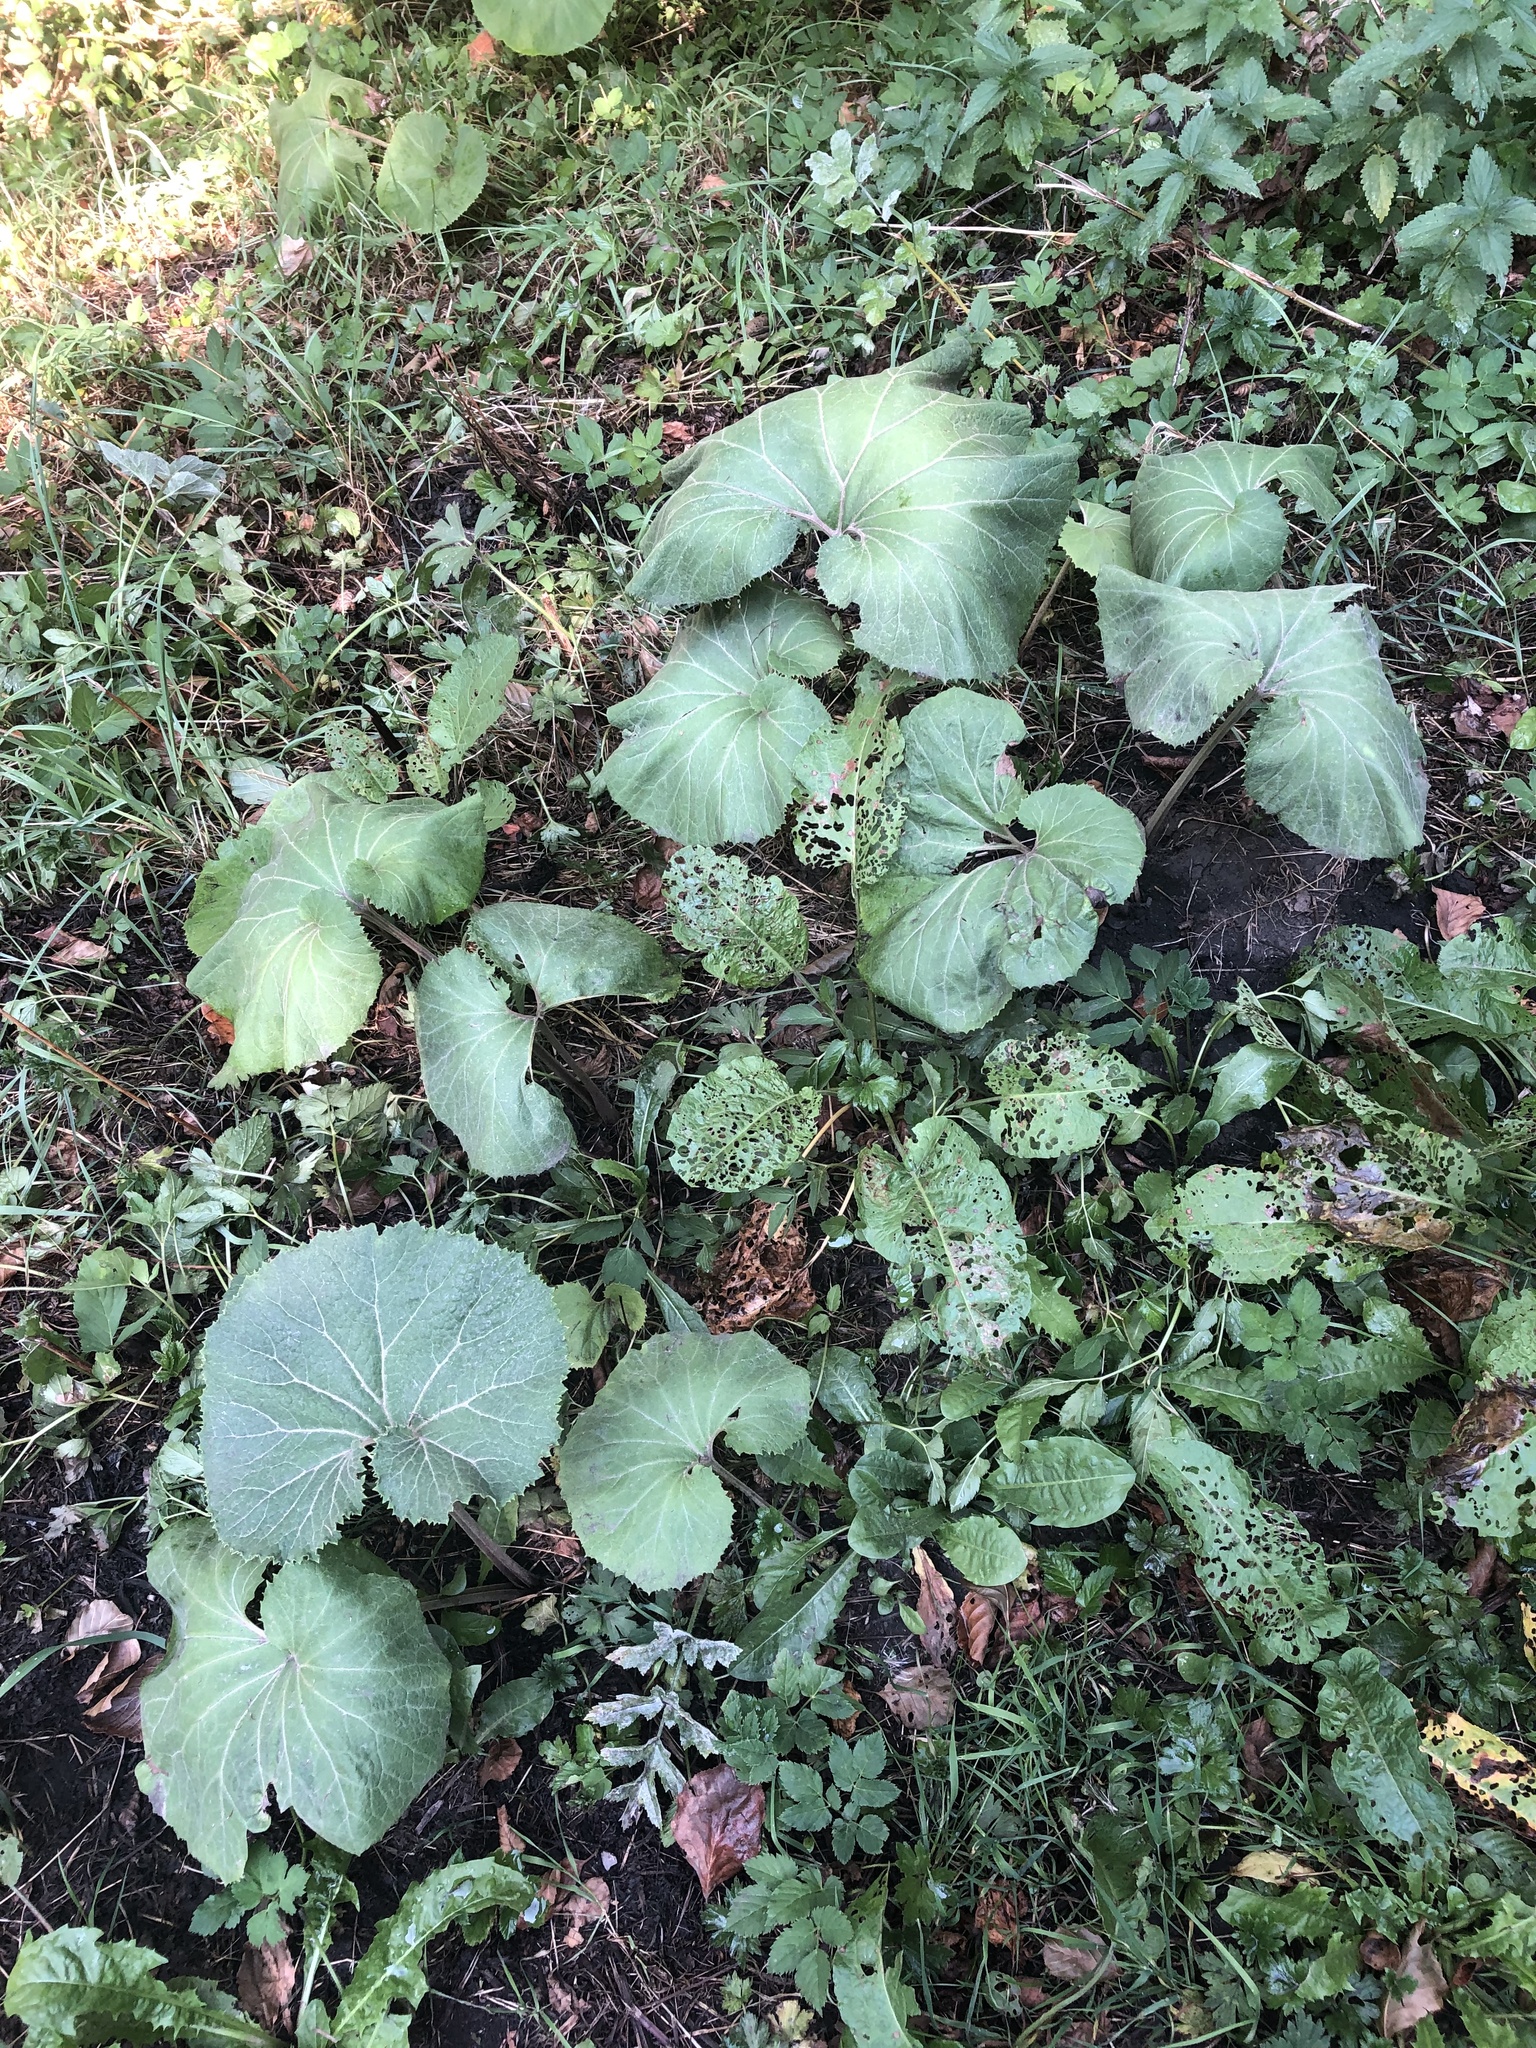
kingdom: Plantae
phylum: Tracheophyta
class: Magnoliopsida
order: Asterales
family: Asteraceae
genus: Petasites
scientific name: Petasites hybridus
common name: Butterbur
